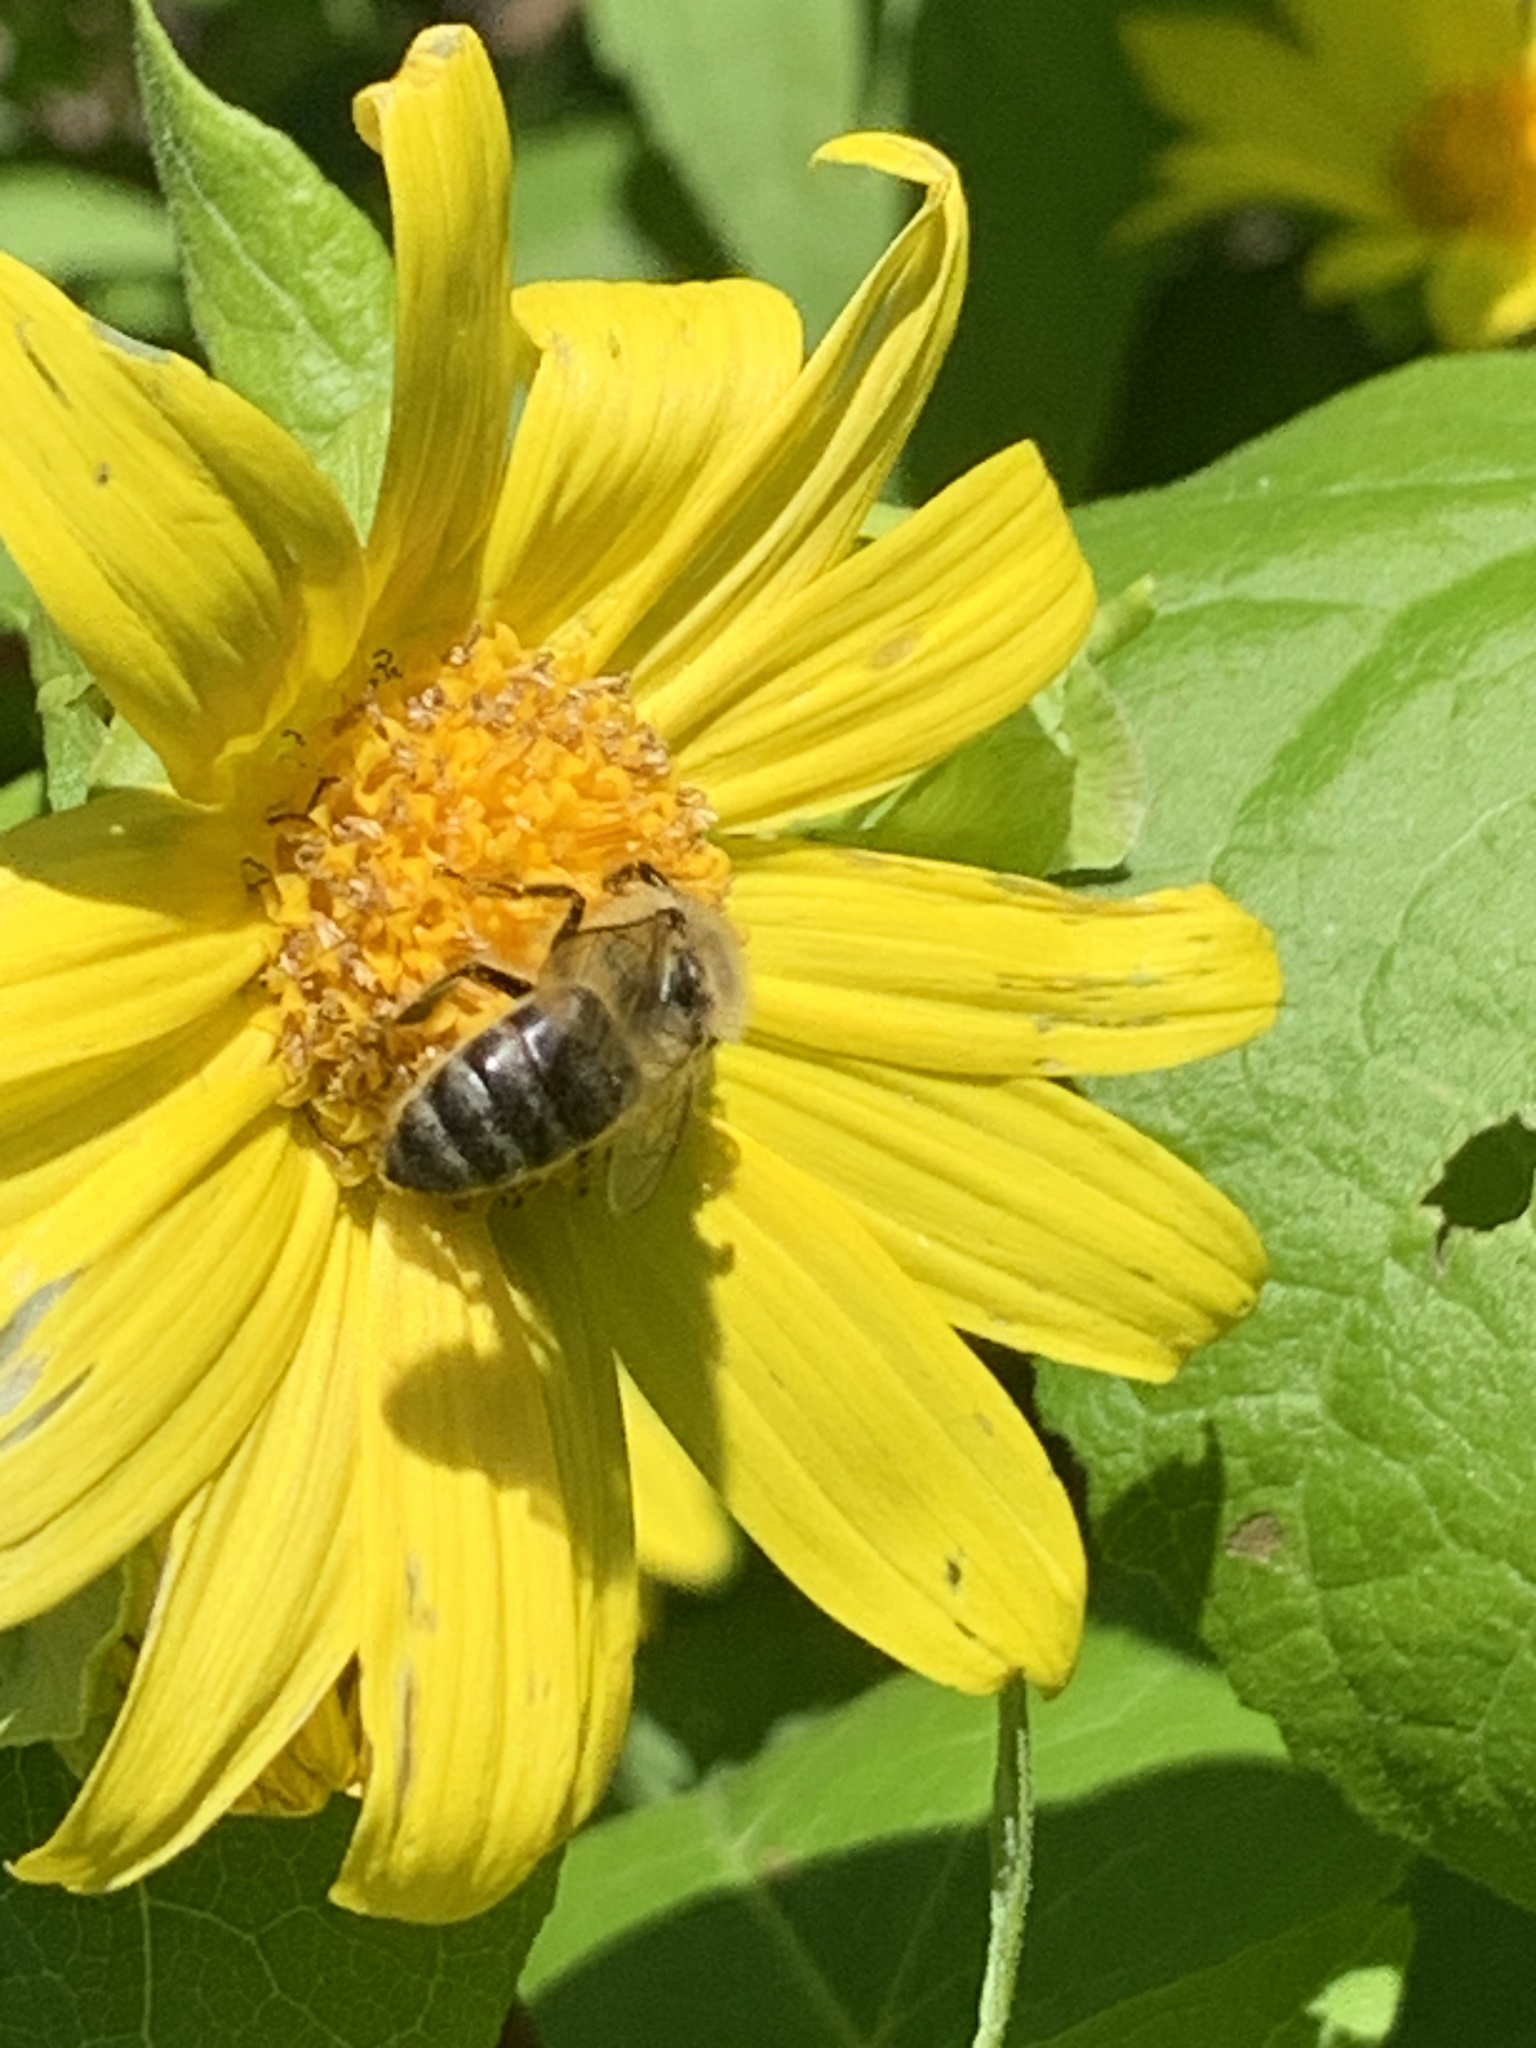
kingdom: Animalia
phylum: Arthropoda
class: Insecta
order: Hymenoptera
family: Apidae
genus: Apis
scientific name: Apis mellifera
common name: Honey bee
